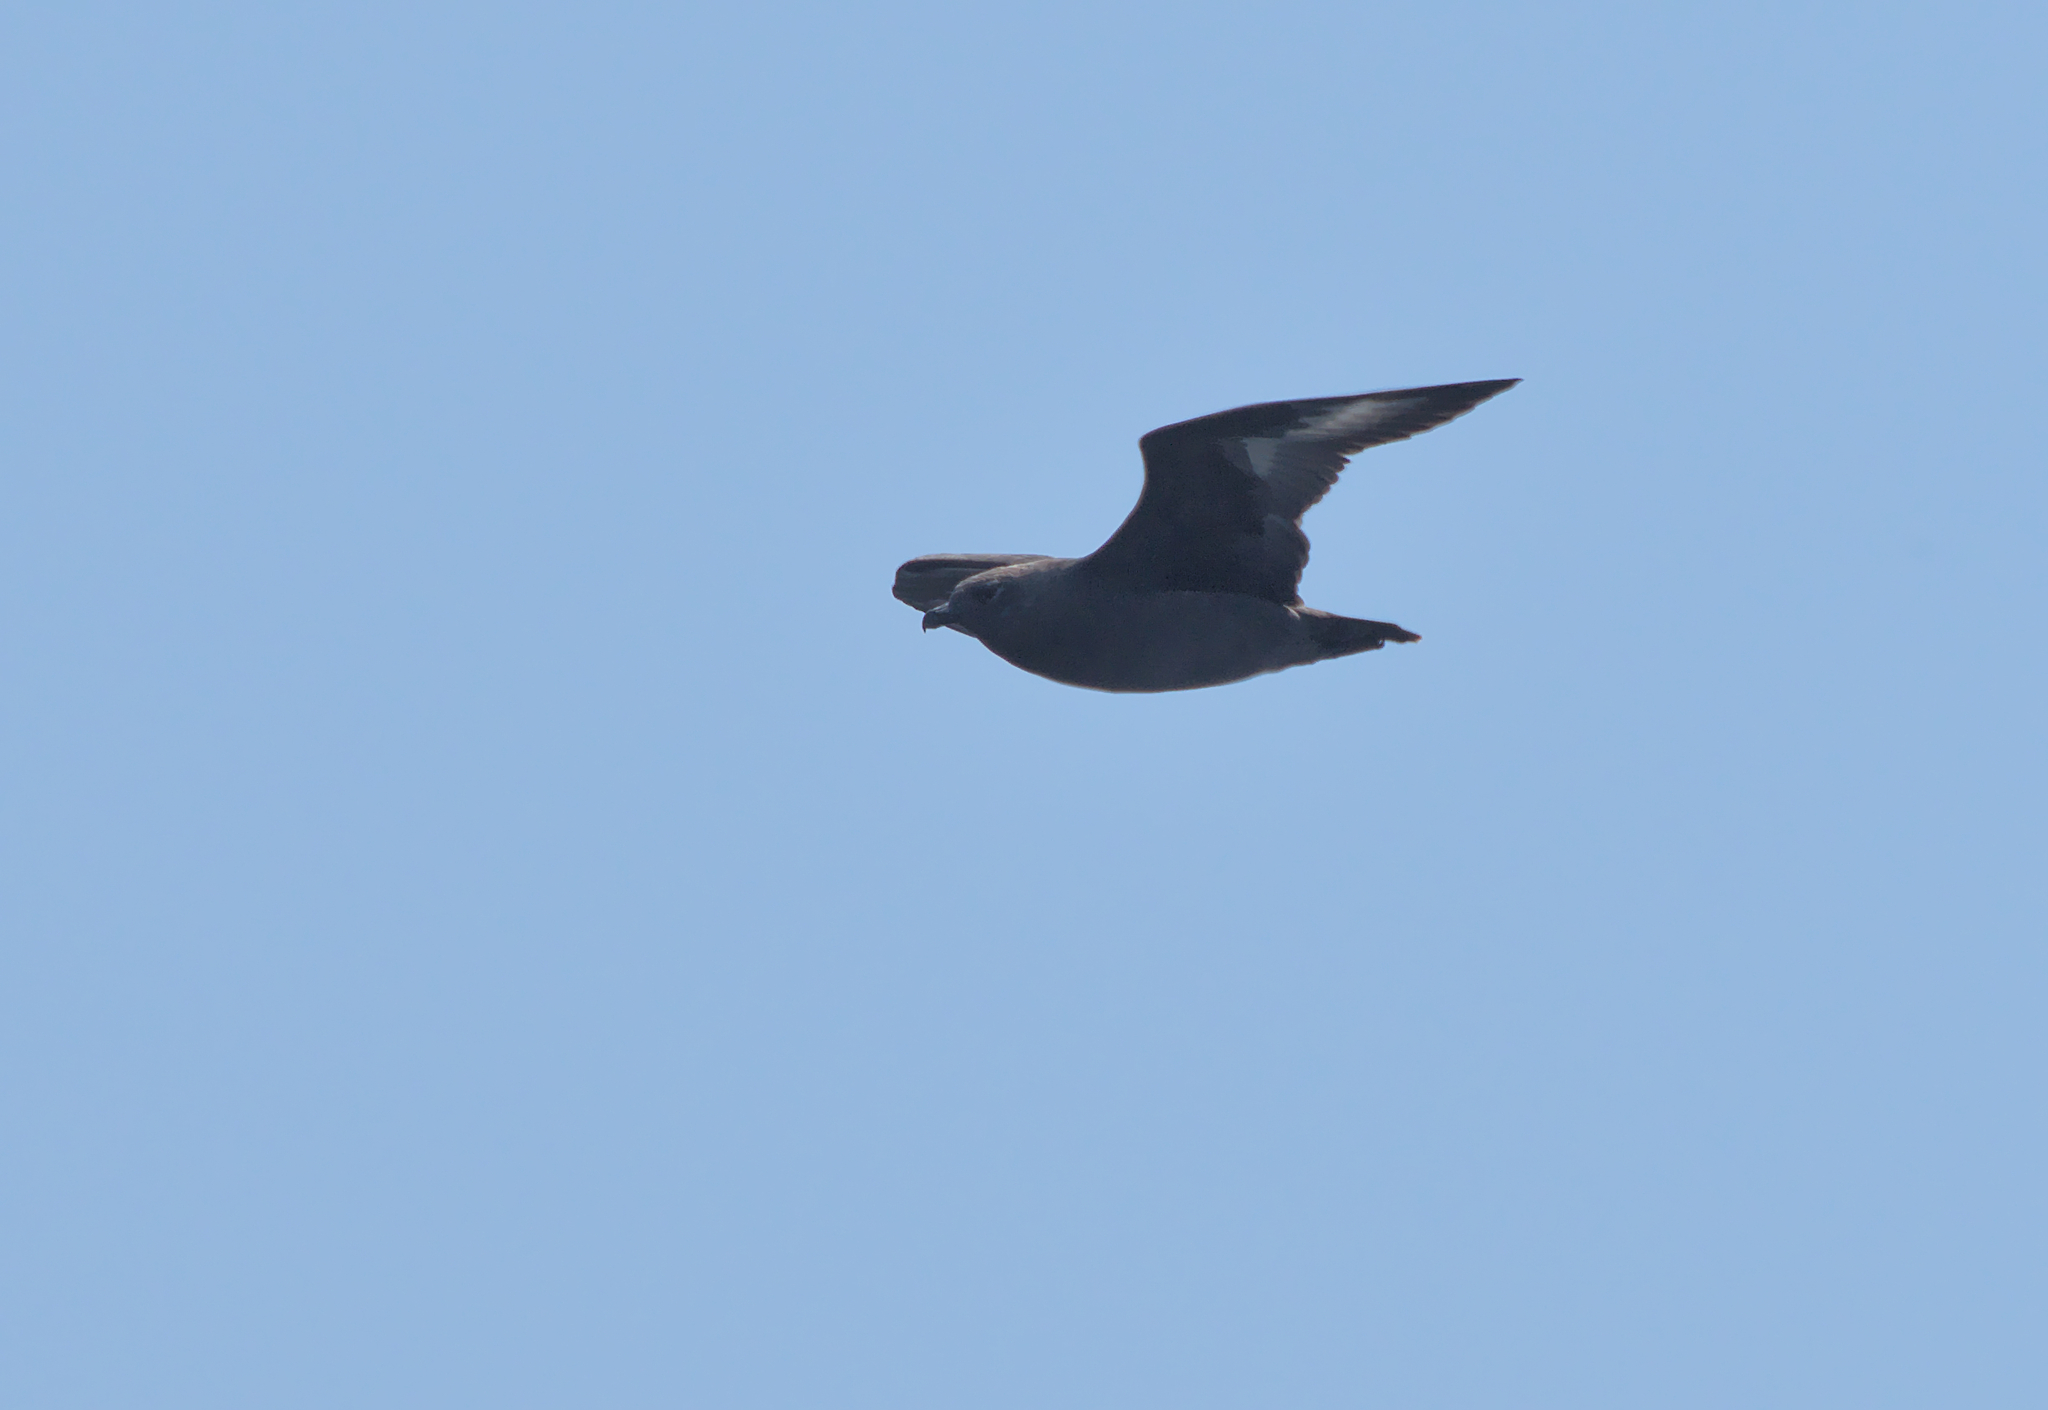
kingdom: Animalia
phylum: Chordata
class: Aves
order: Charadriiformes
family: Stercorariidae
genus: Stercorarius
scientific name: Stercorarius maccormicki
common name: South polar skua
